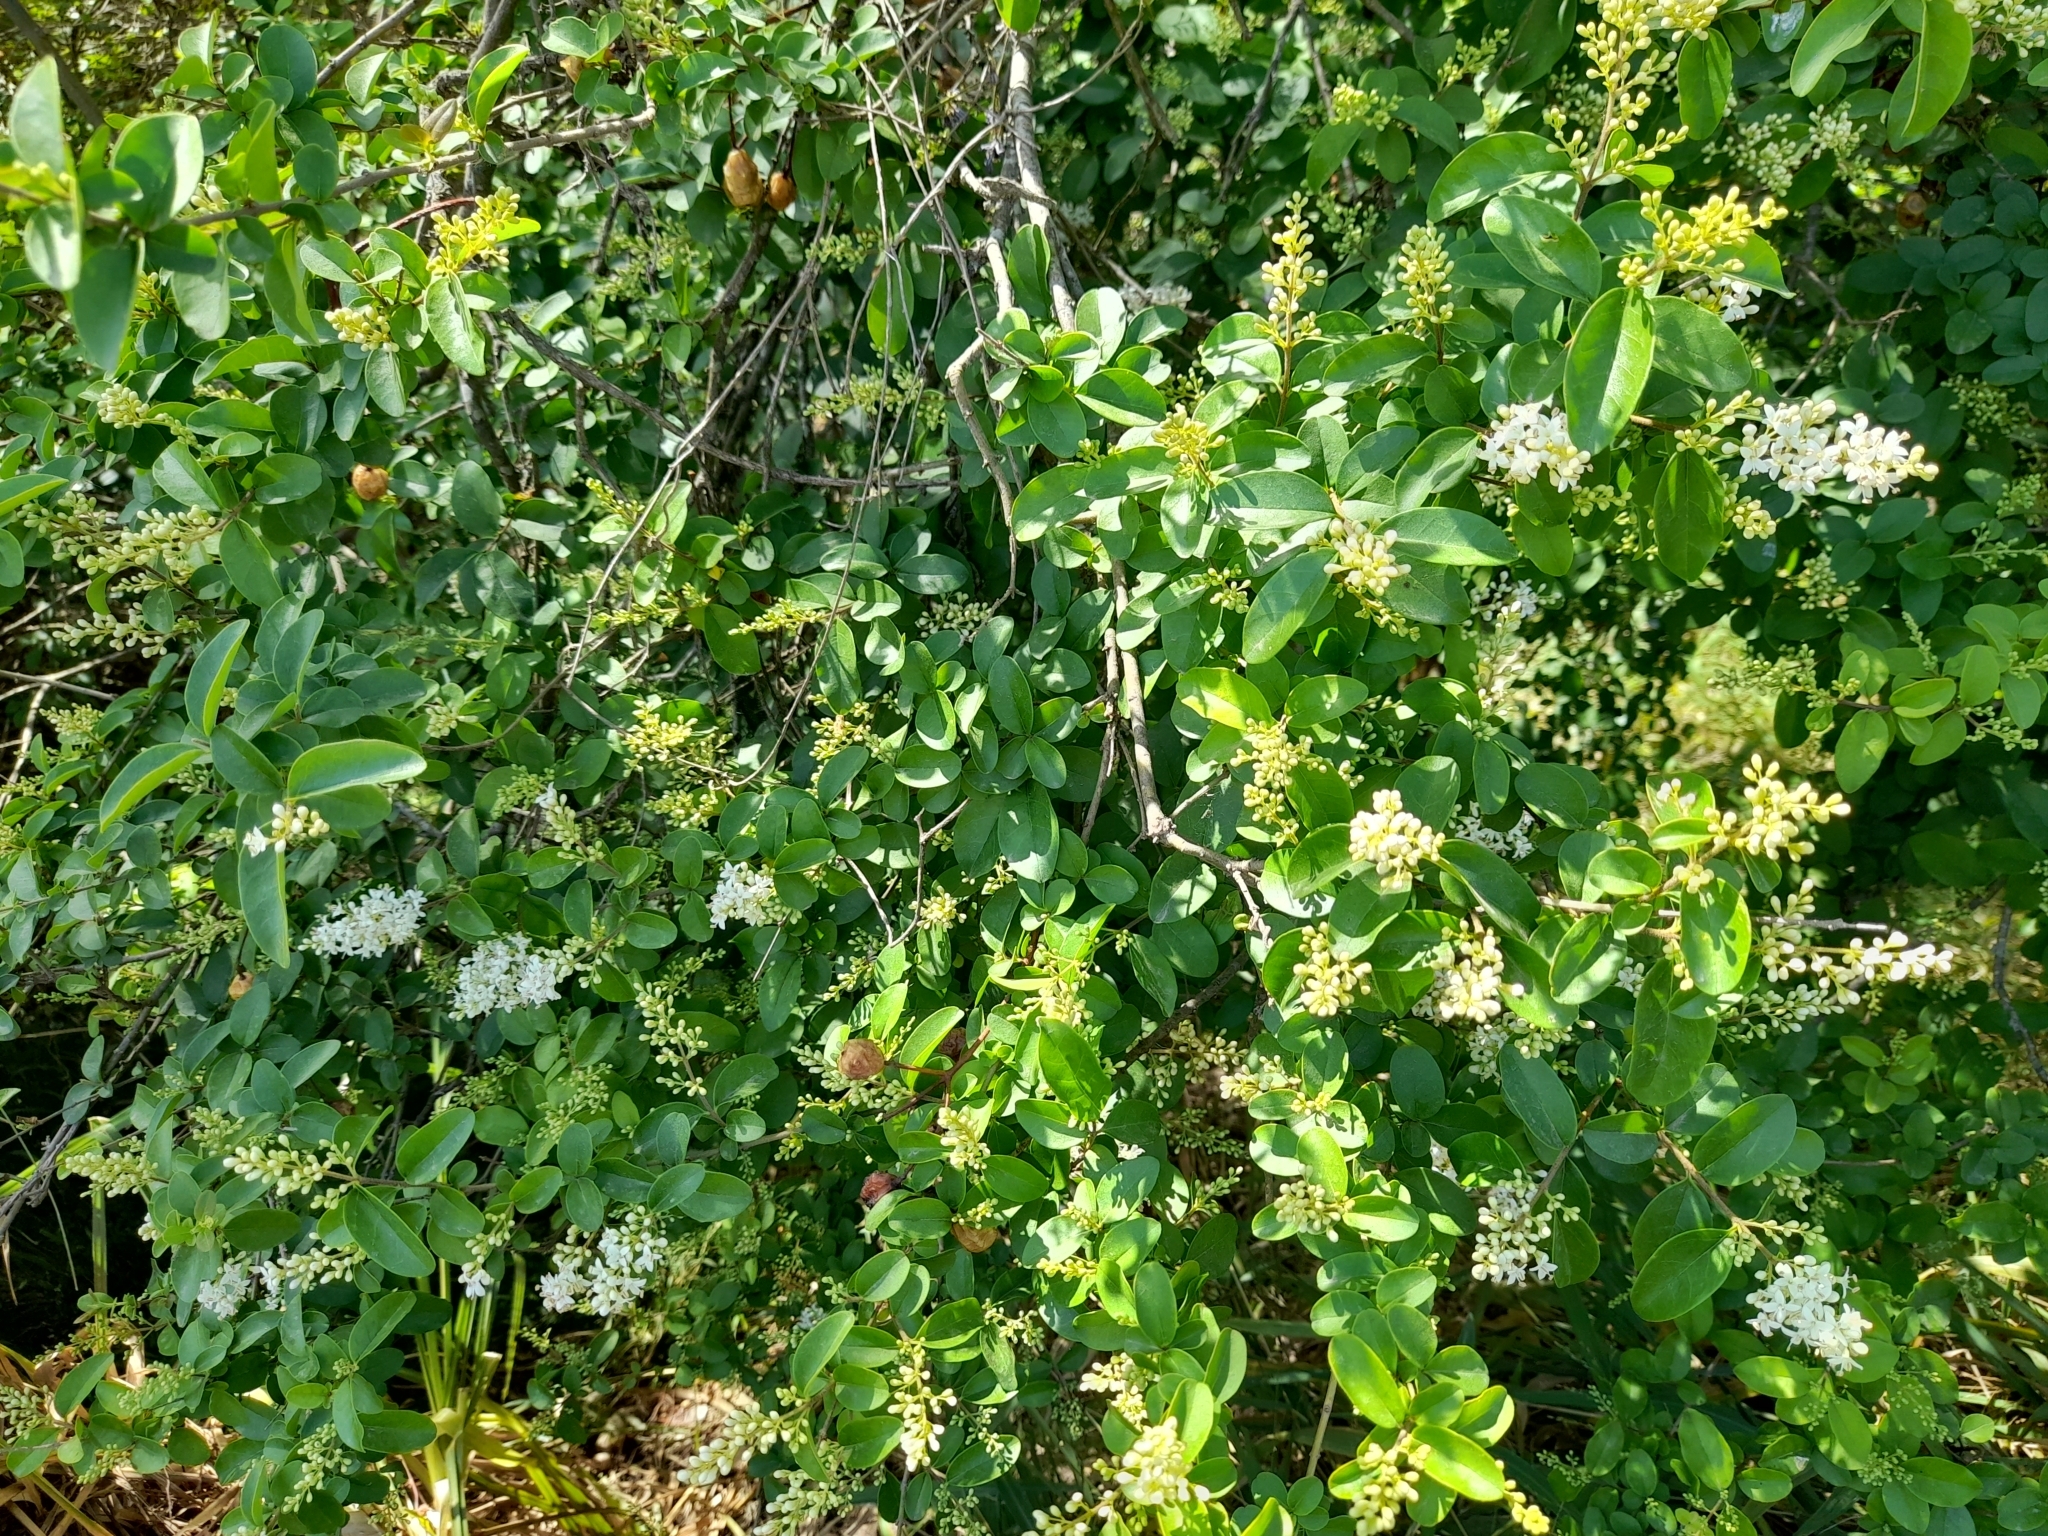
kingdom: Plantae
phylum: Tracheophyta
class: Magnoliopsida
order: Lamiales
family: Oleaceae
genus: Ligustrum
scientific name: Ligustrum sinense
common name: Chinese privet
